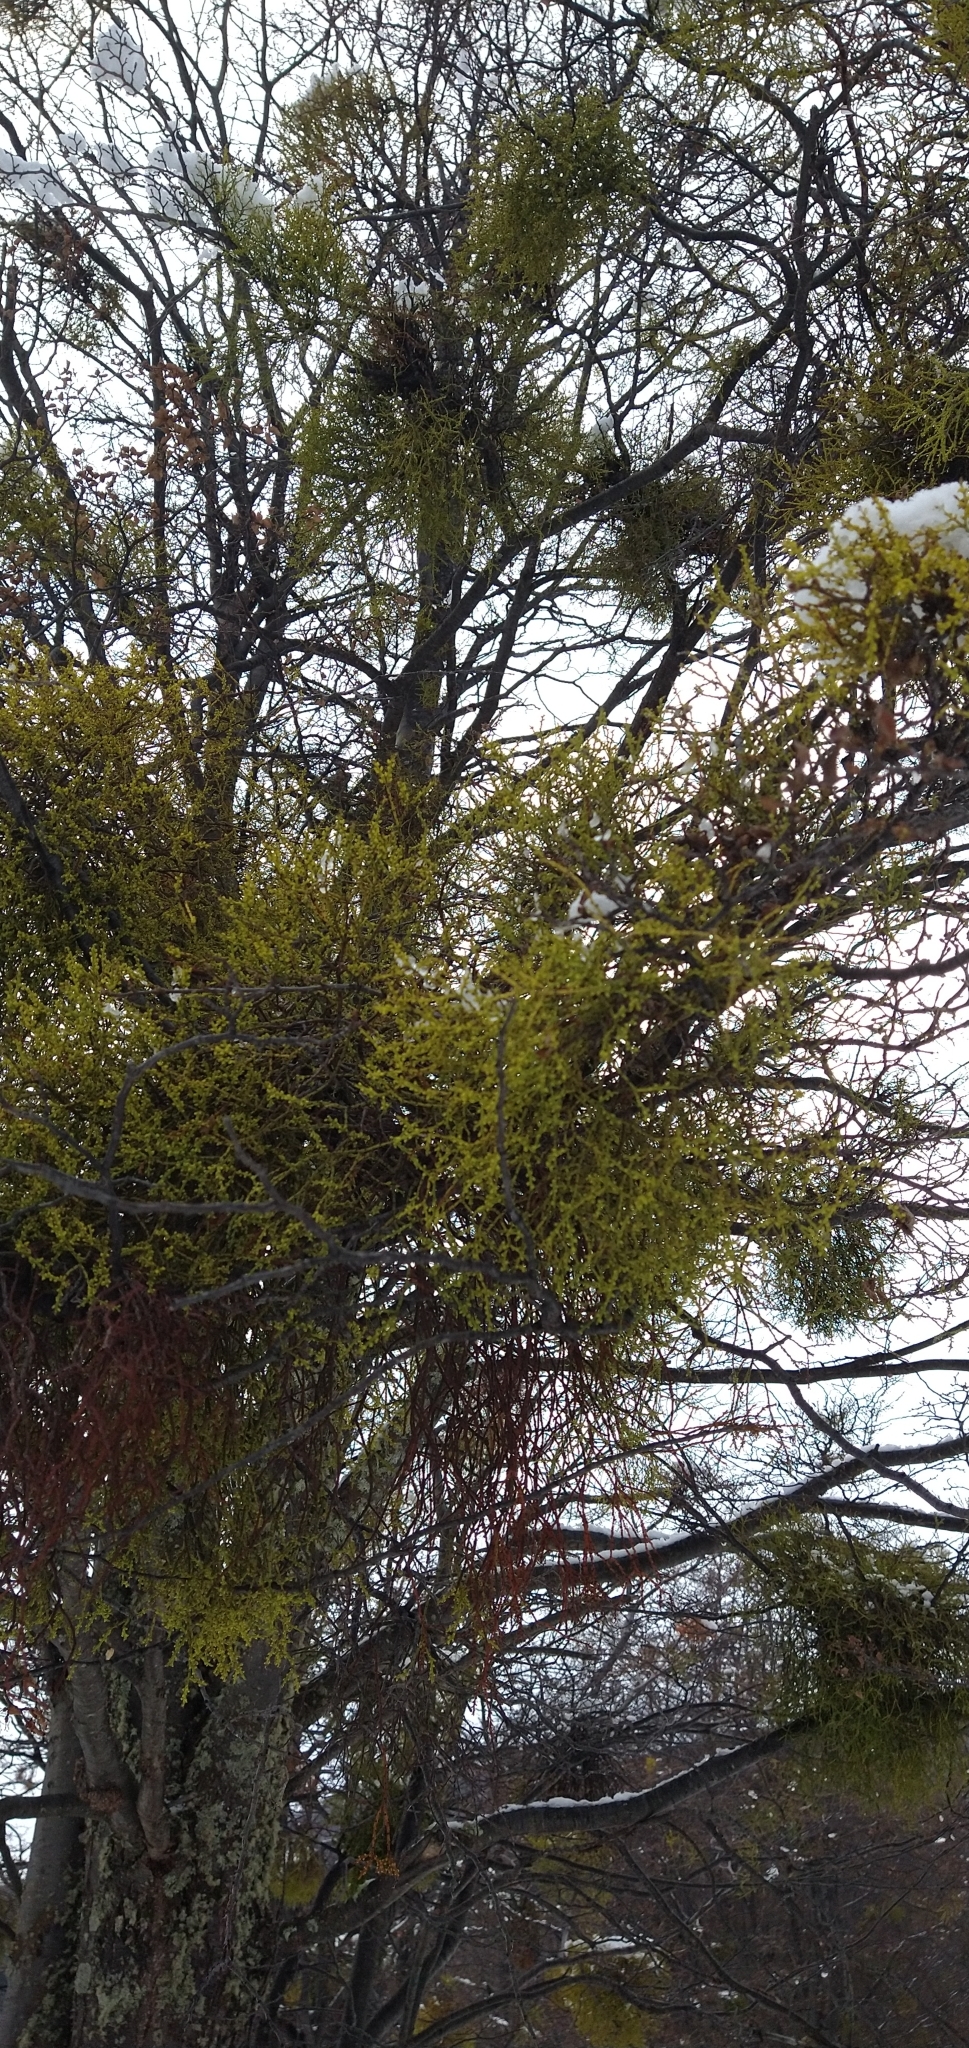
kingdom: Plantae
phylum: Tracheophyta
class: Magnoliopsida
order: Santalales
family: Misodendraceae
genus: Misodendrum
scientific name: Misodendrum punctulatum
